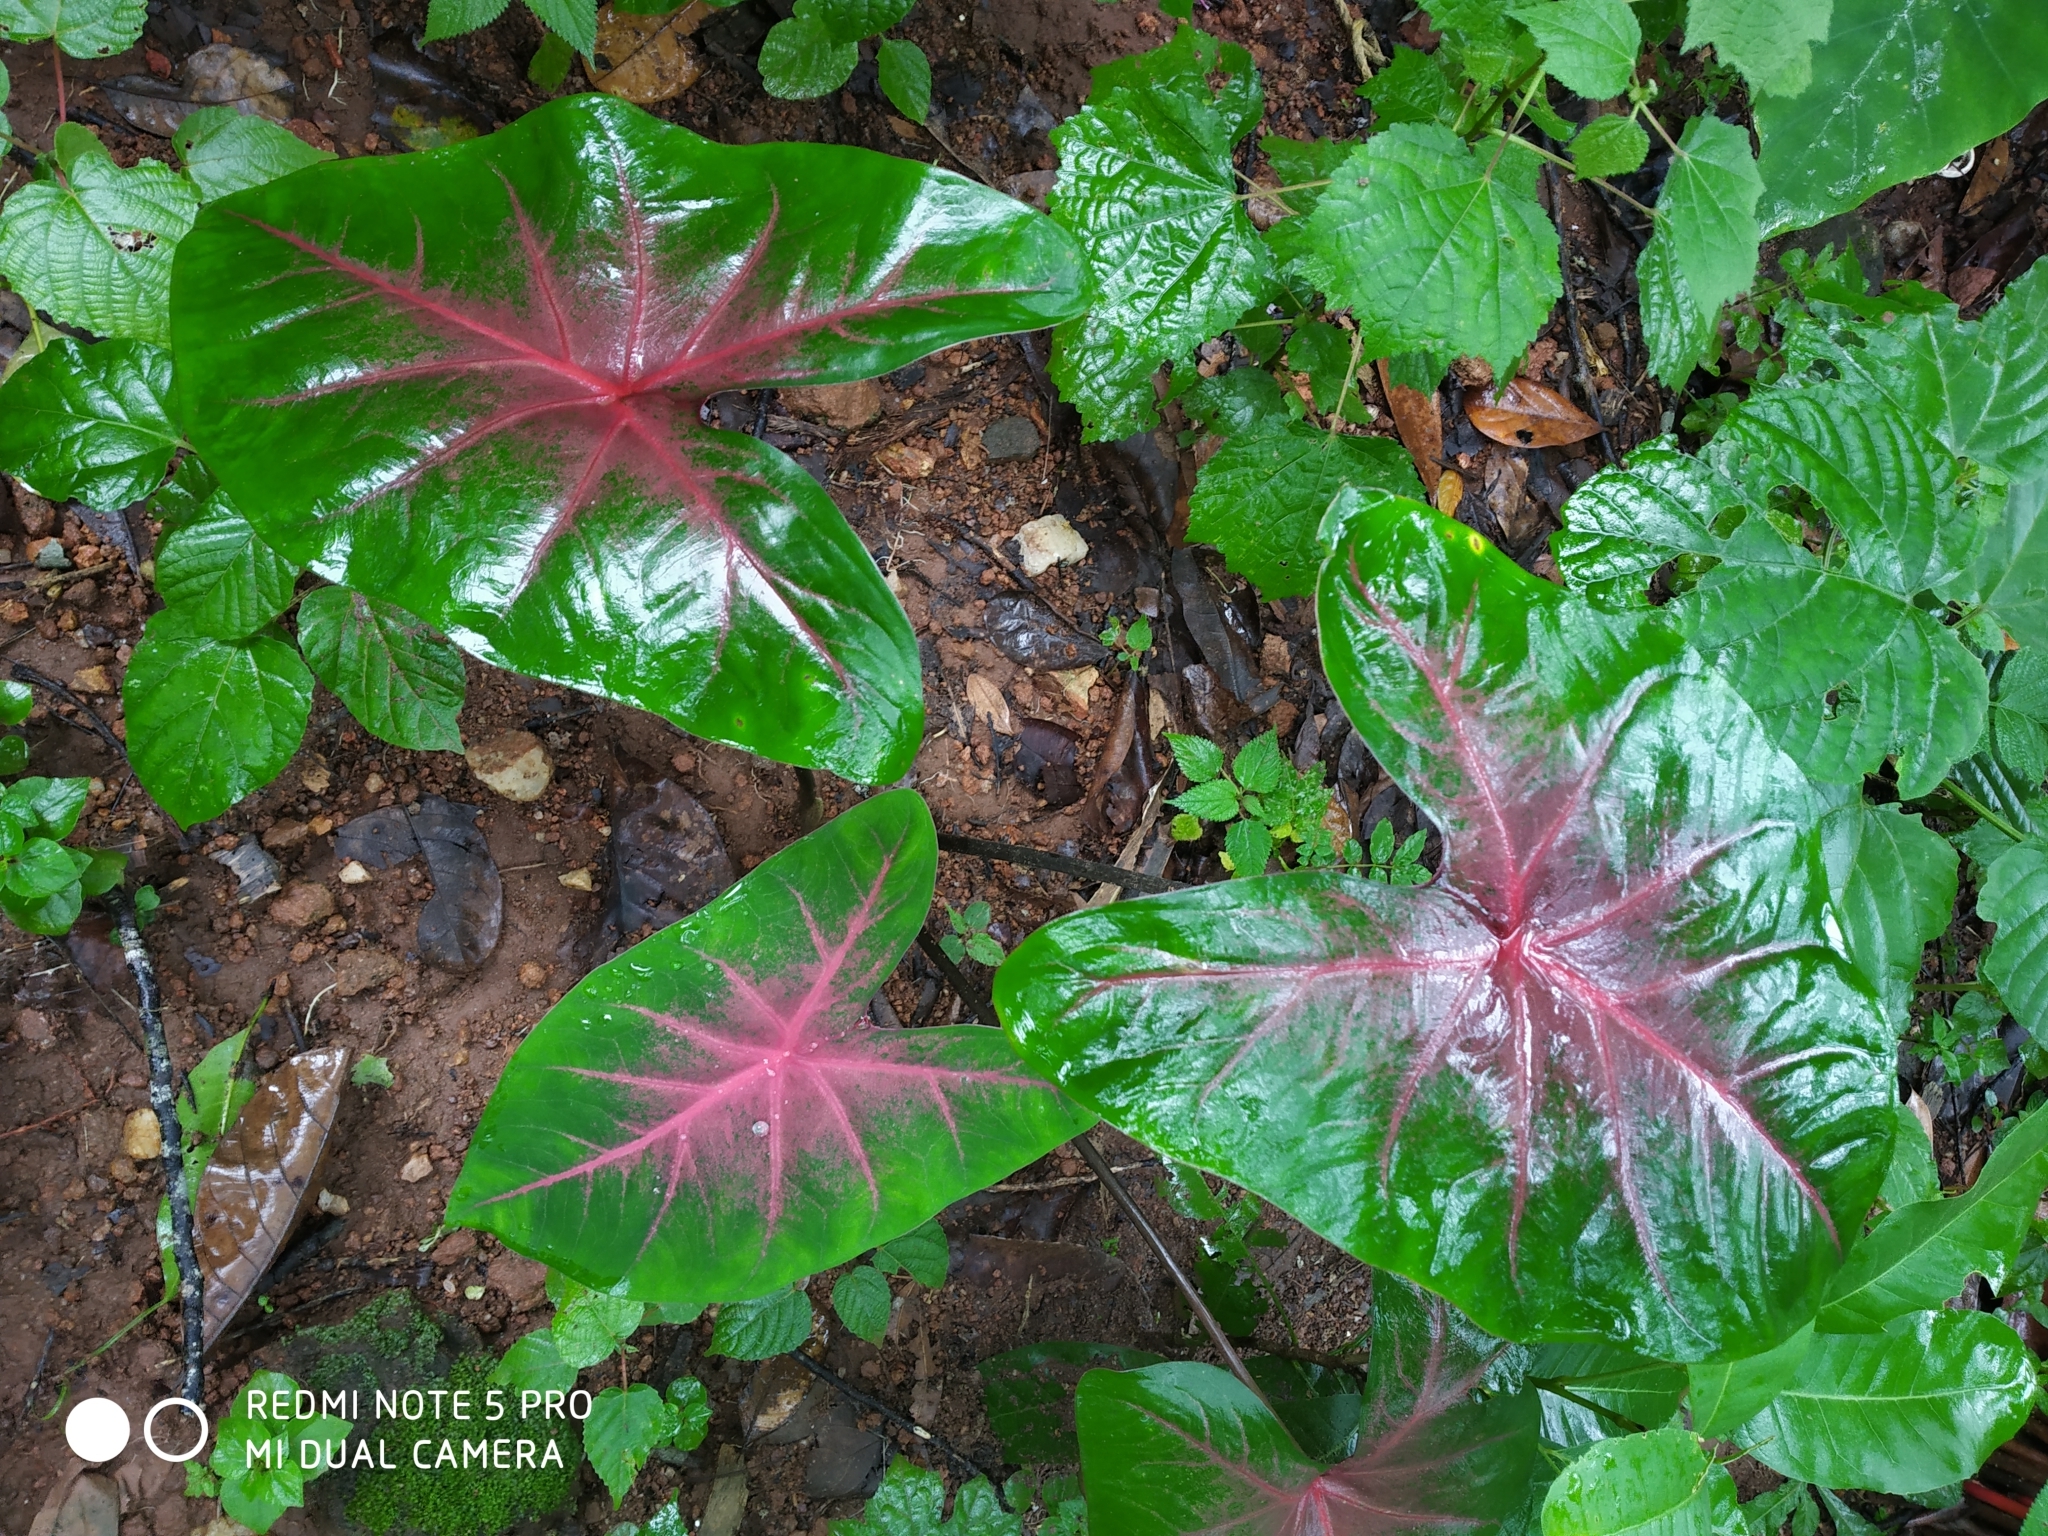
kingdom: Plantae
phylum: Tracheophyta
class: Liliopsida
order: Alismatales
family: Araceae
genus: Caladium
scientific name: Caladium bicolor
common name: Artist's pallet
